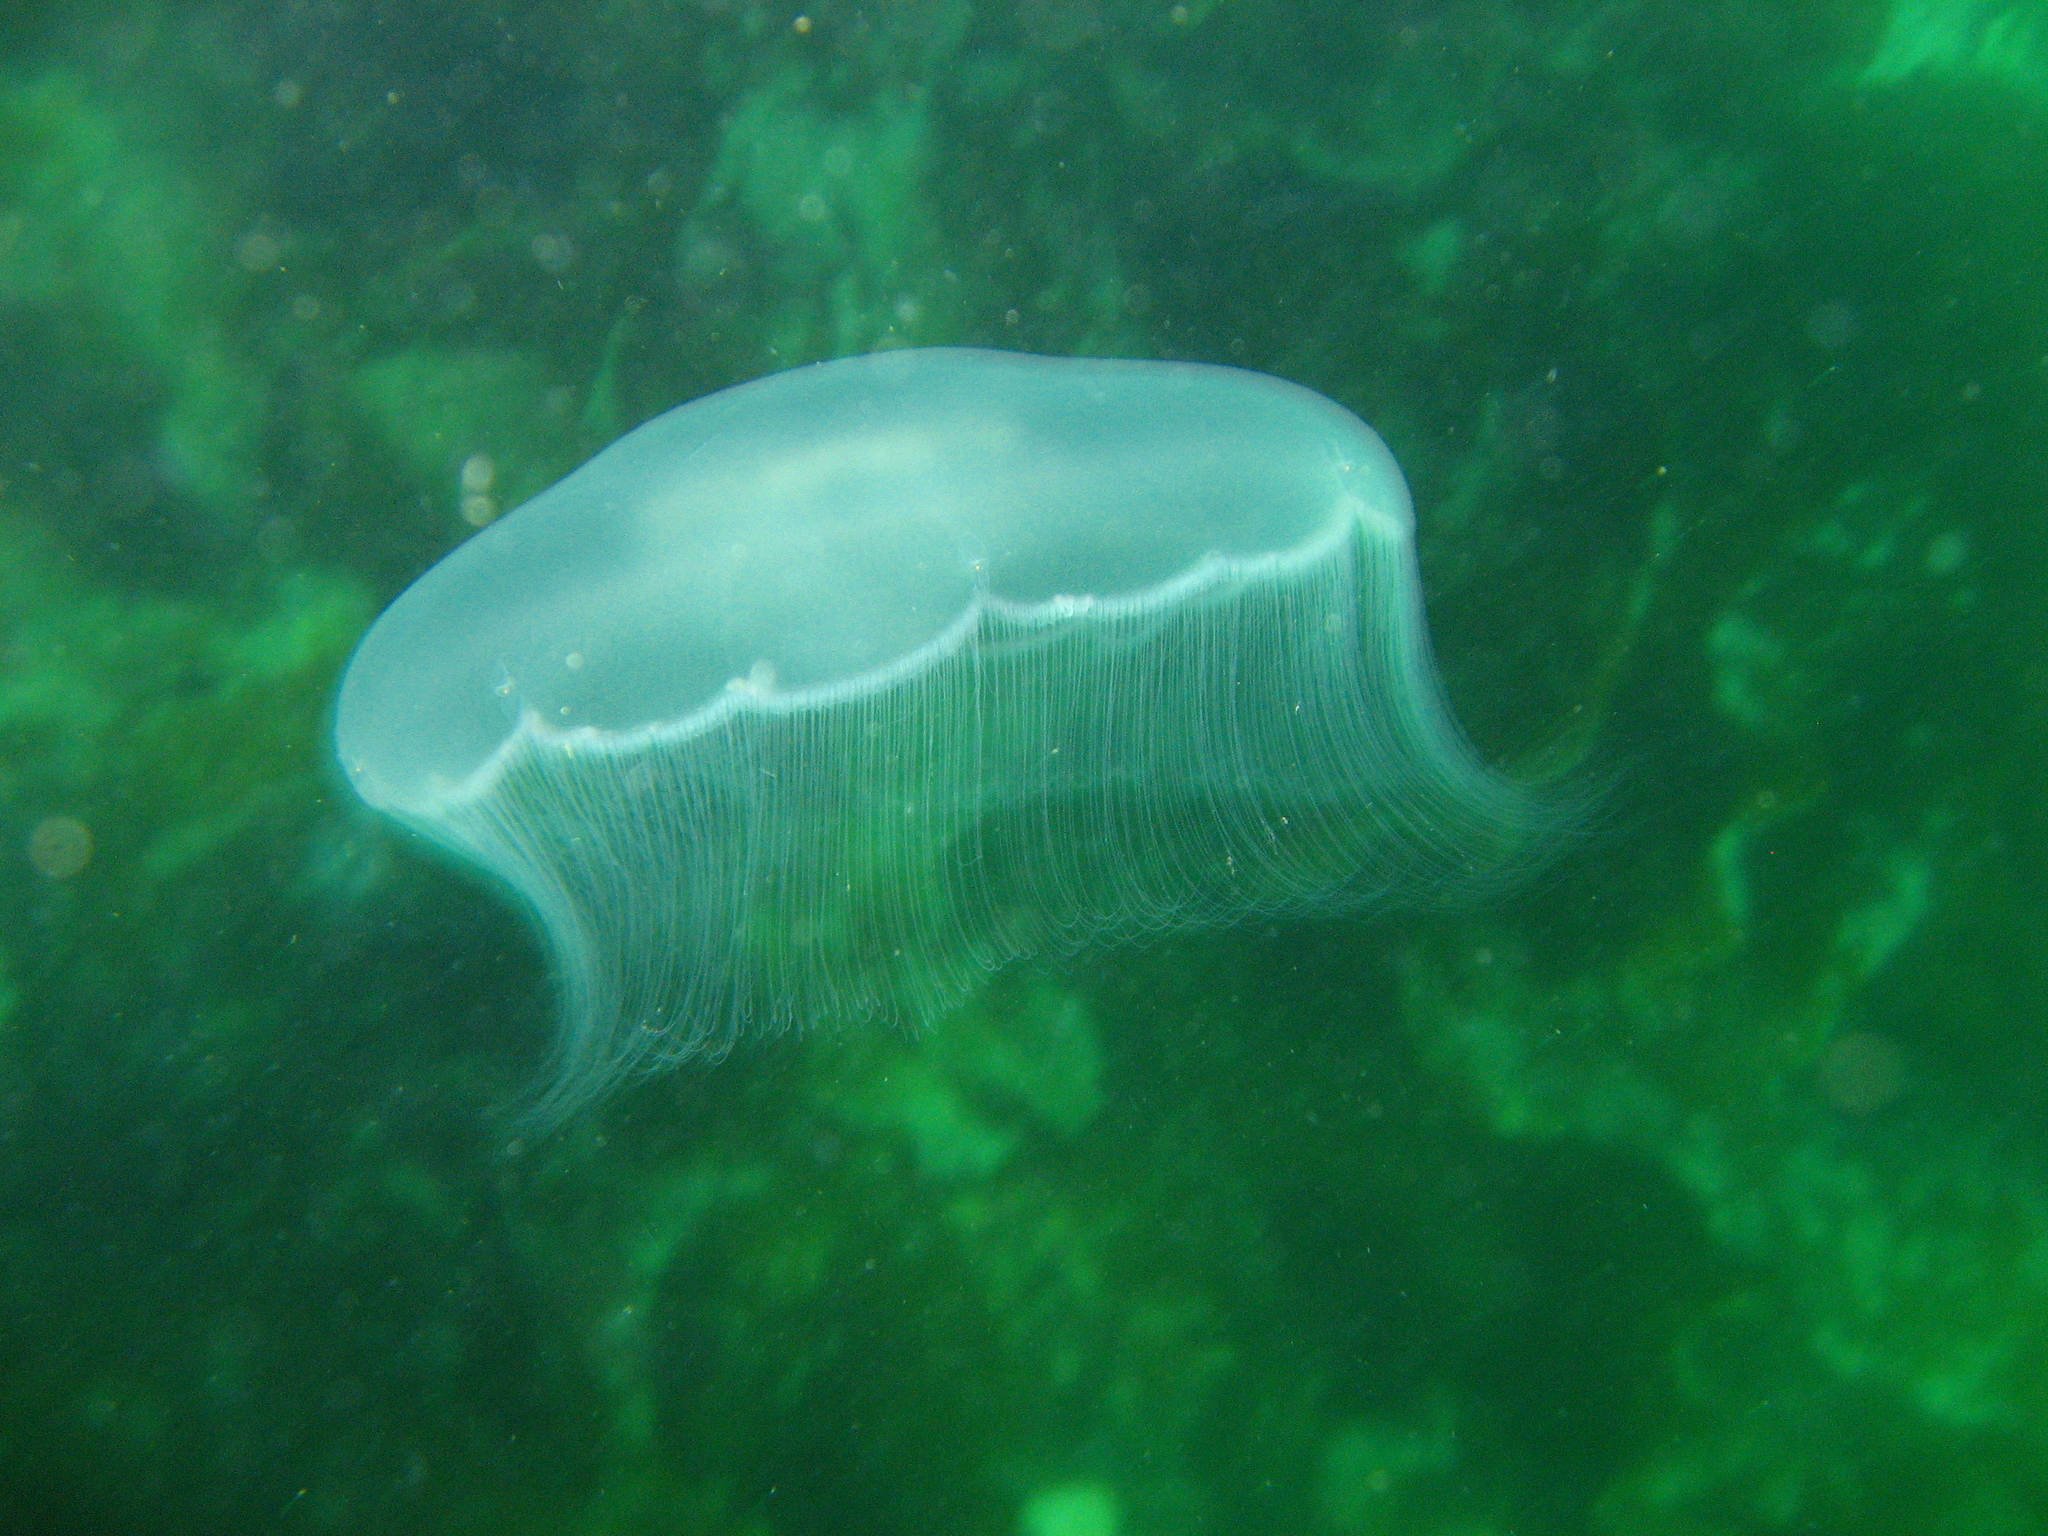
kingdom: Animalia
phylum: Cnidaria
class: Scyphozoa
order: Semaeostomeae
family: Ulmaridae
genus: Aurelia
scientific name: Aurelia labiata
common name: Pacific moon jelly
